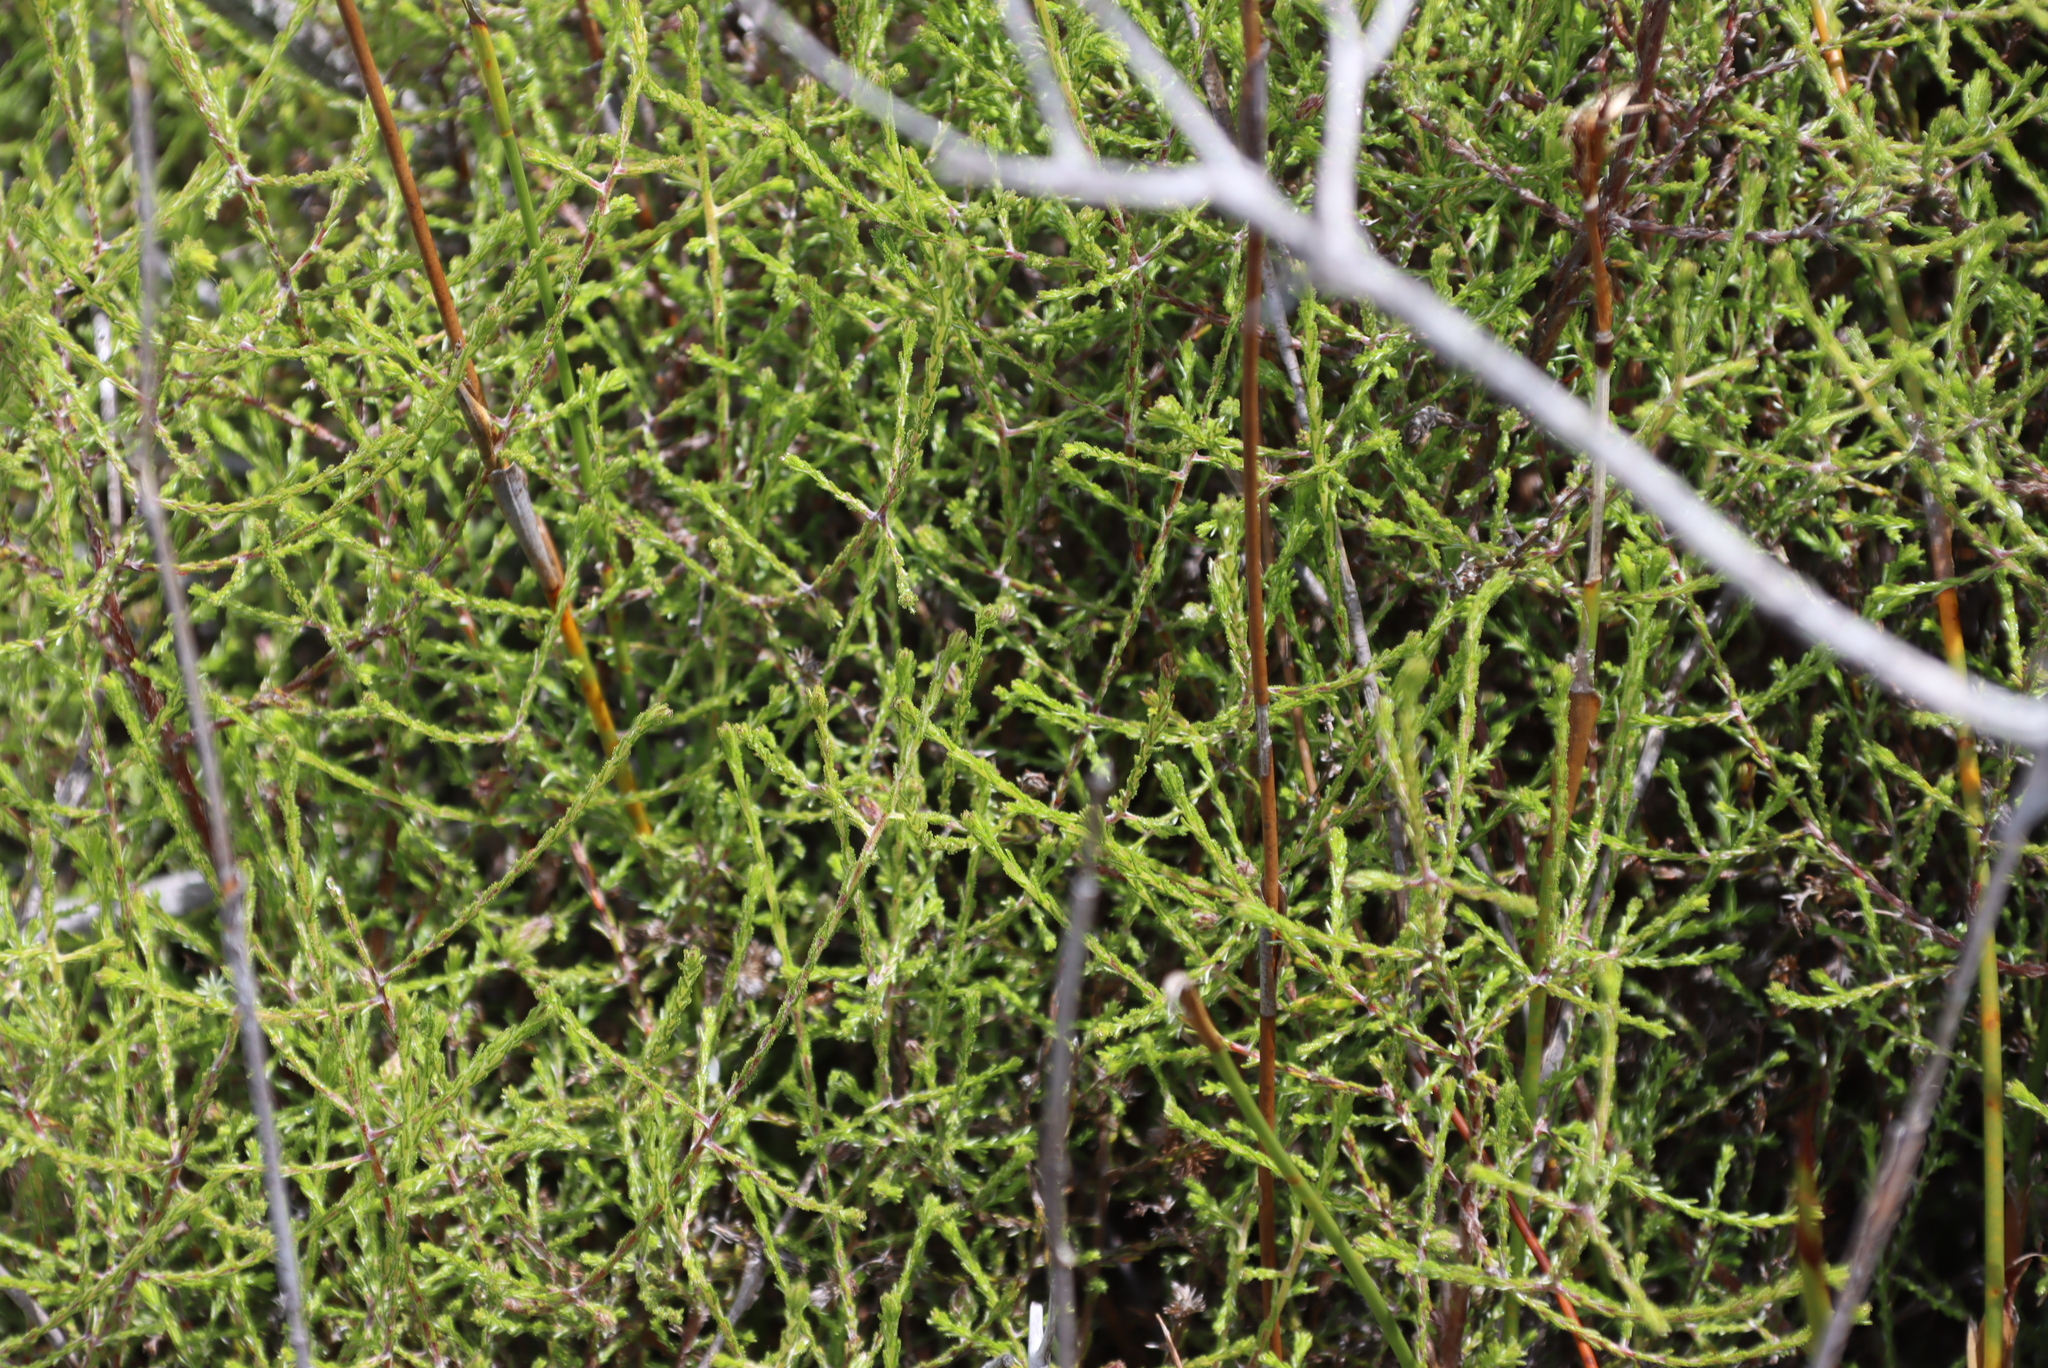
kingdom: Plantae
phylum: Tracheophyta
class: Magnoliopsida
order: Asterales
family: Asteraceae
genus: Myrovernix
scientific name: Myrovernix scaber
